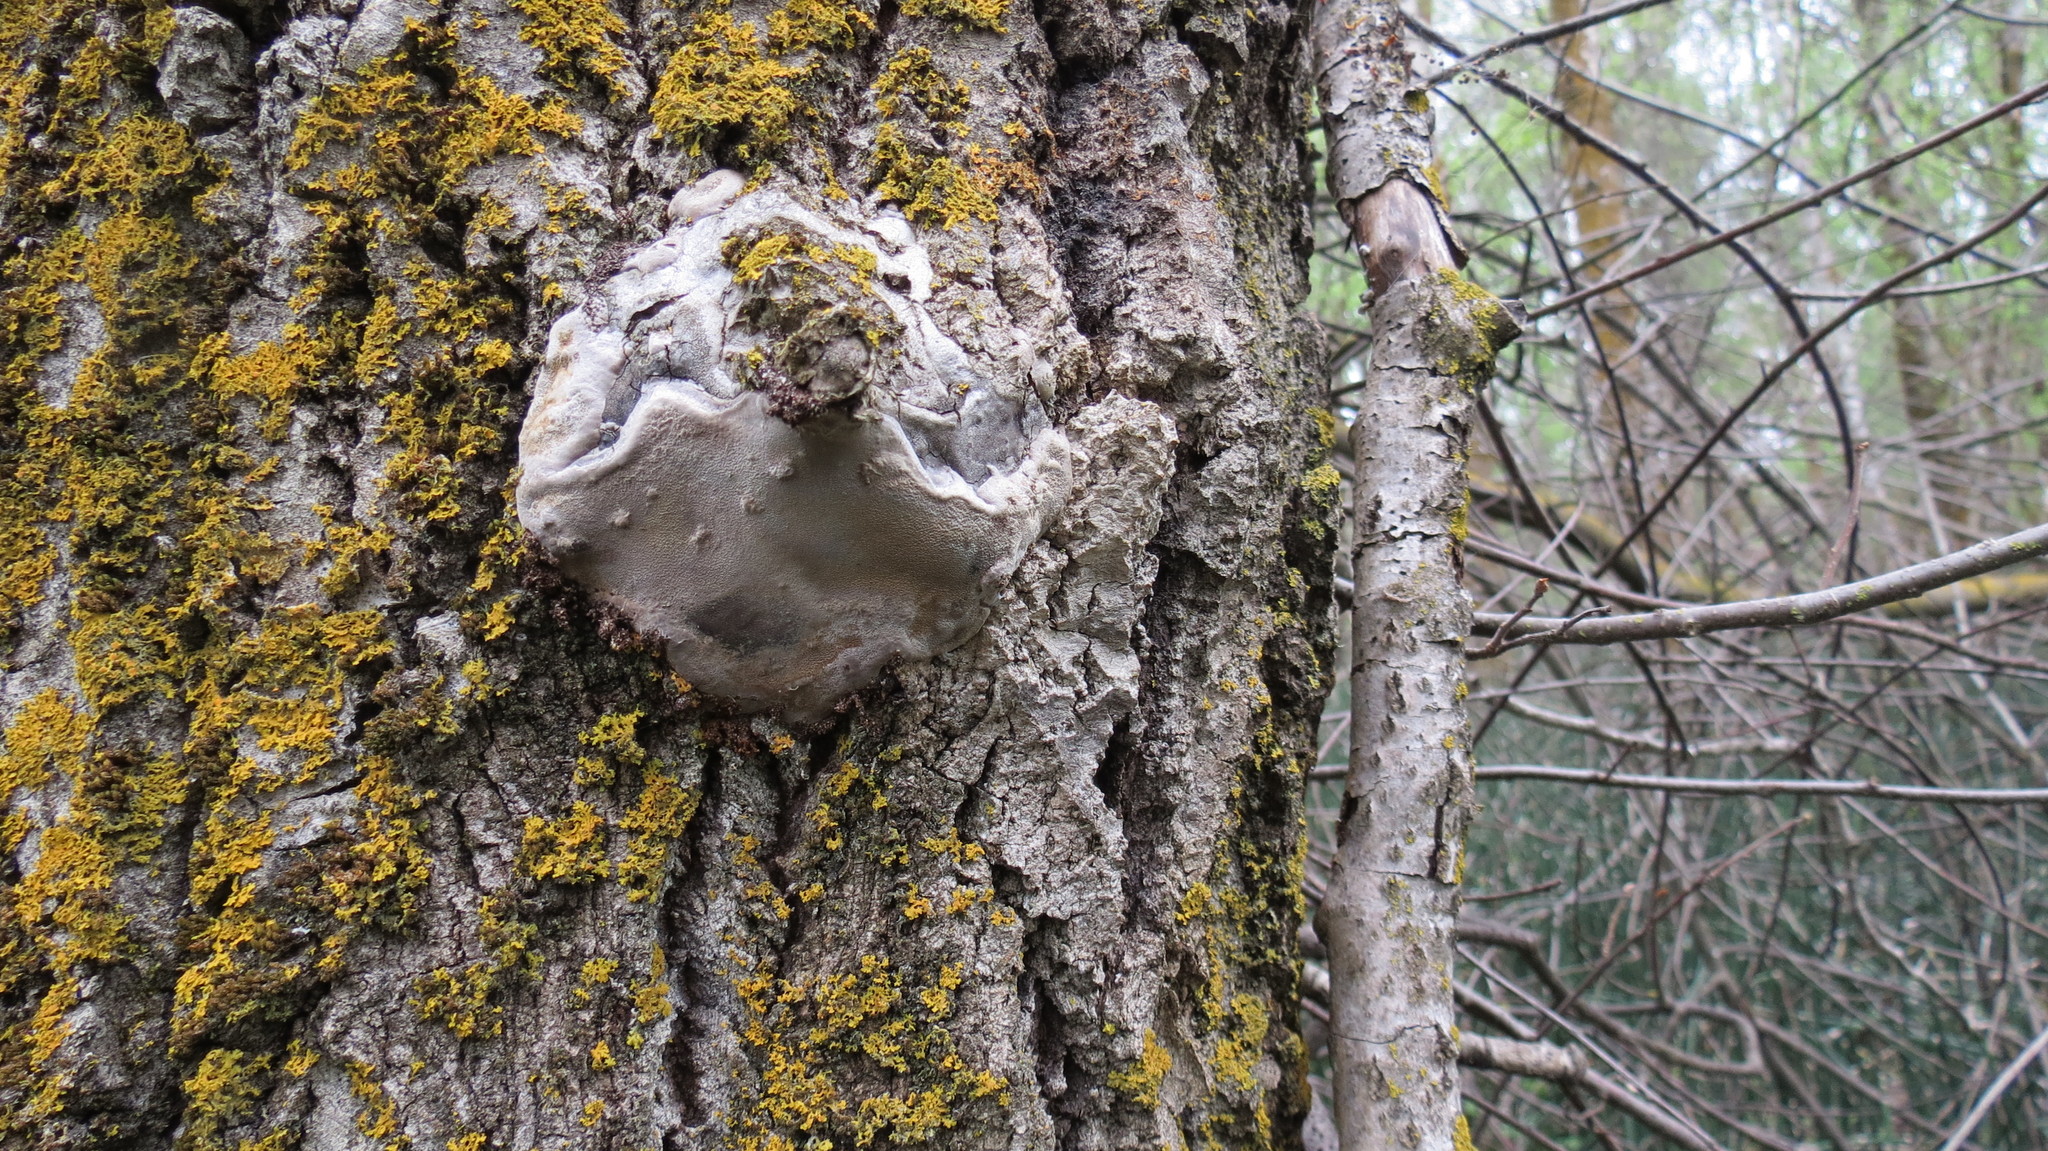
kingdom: Fungi
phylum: Basidiomycota
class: Agaricomycetes
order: Hymenochaetales
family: Hymenochaetaceae
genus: Phellinus
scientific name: Phellinus tremulae
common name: Aspen bracket
